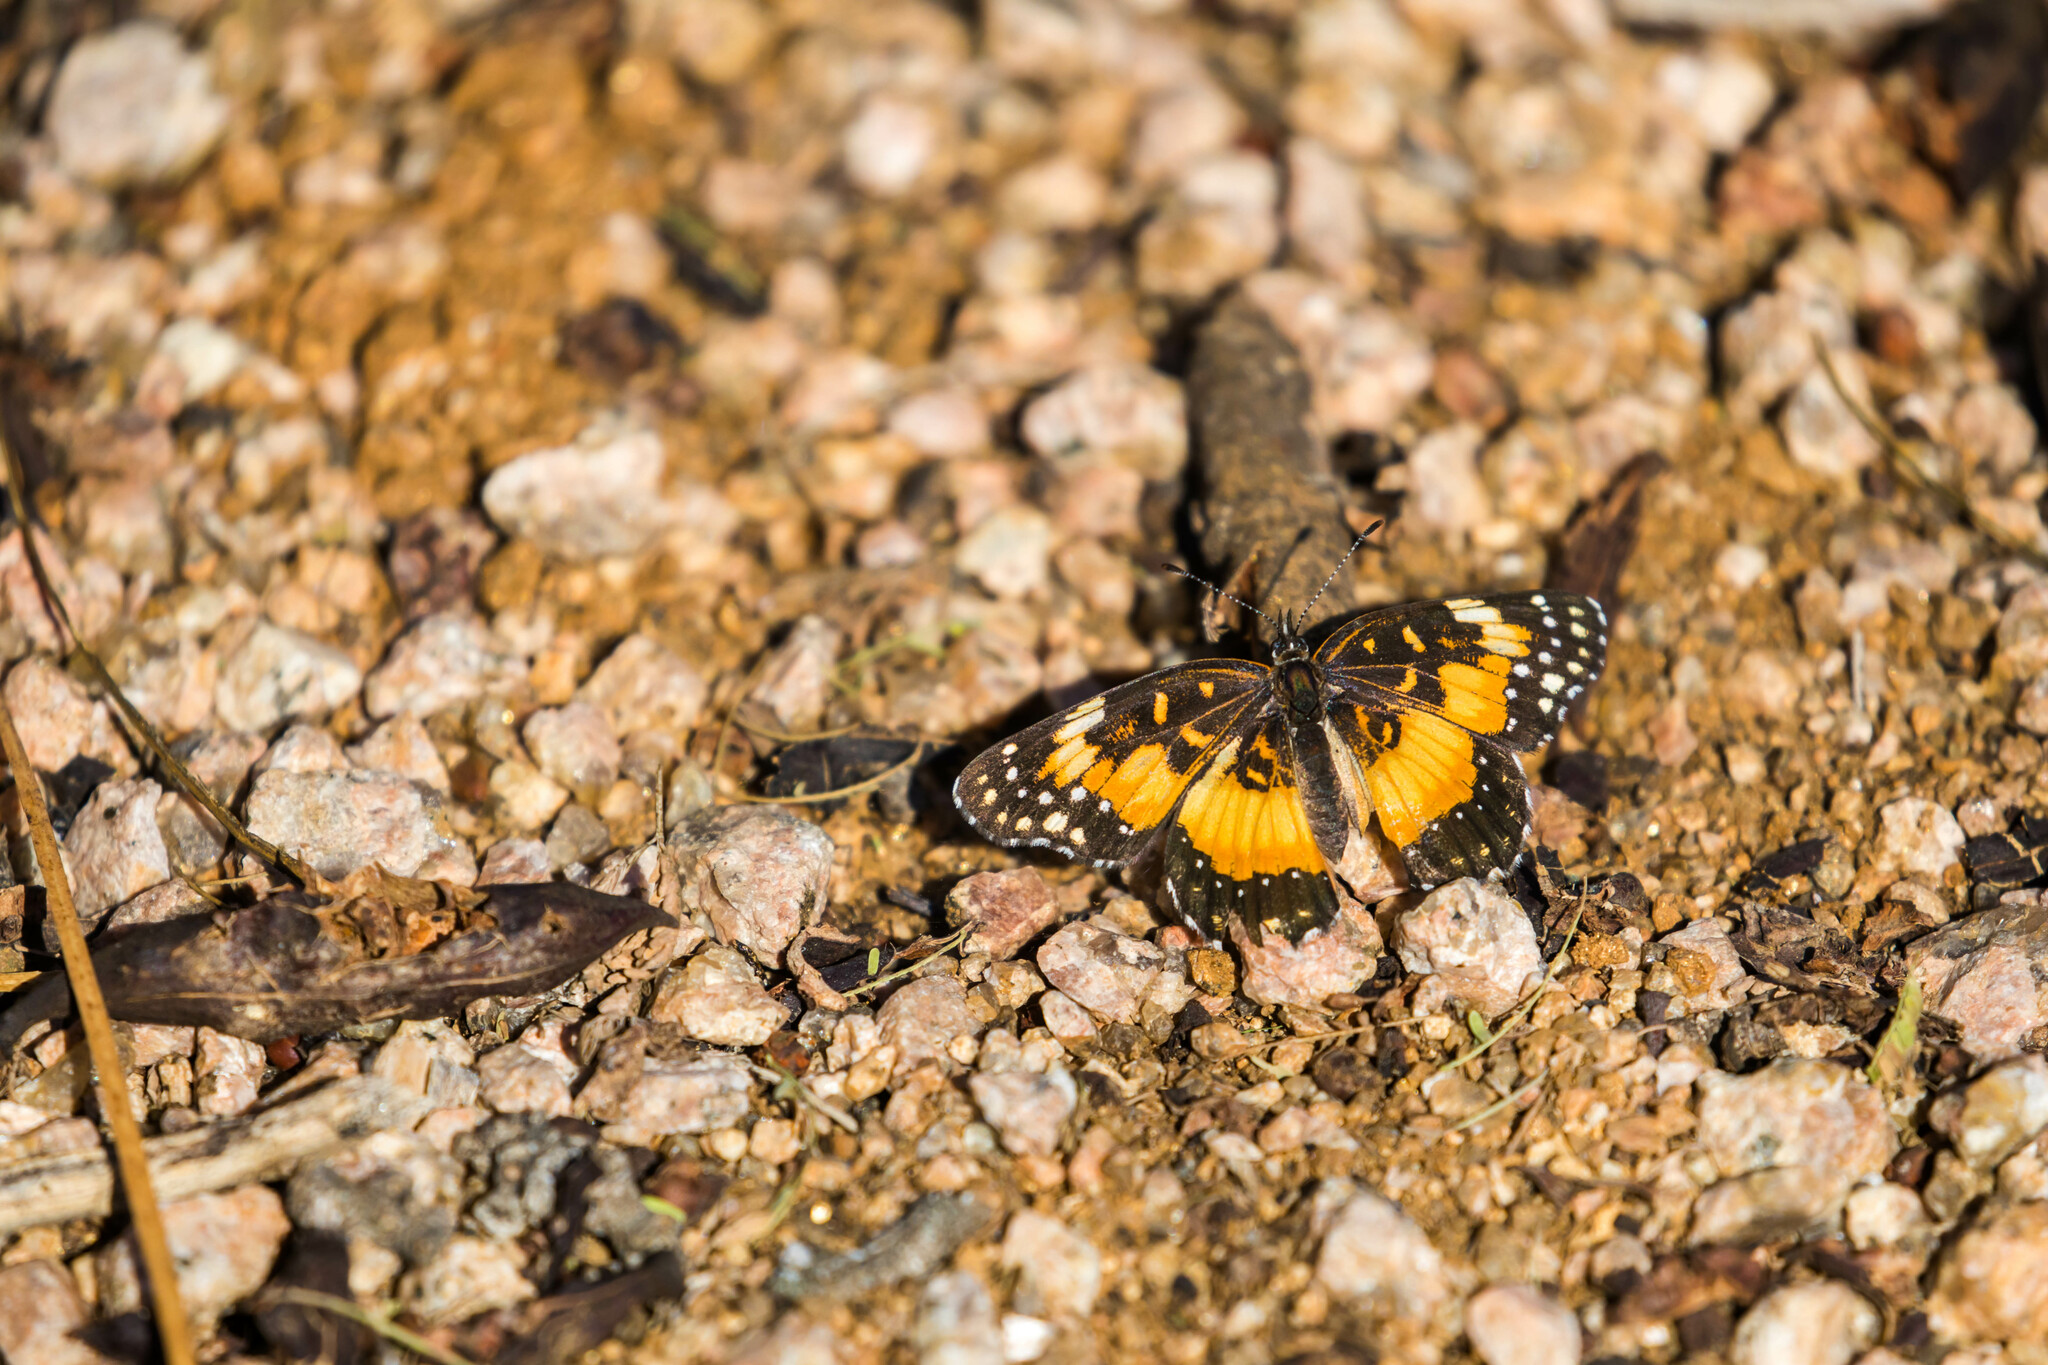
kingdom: Animalia
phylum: Arthropoda
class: Insecta
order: Lepidoptera
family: Nymphalidae
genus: Chlosyne
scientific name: Chlosyne lacinia
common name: Bordered patch
